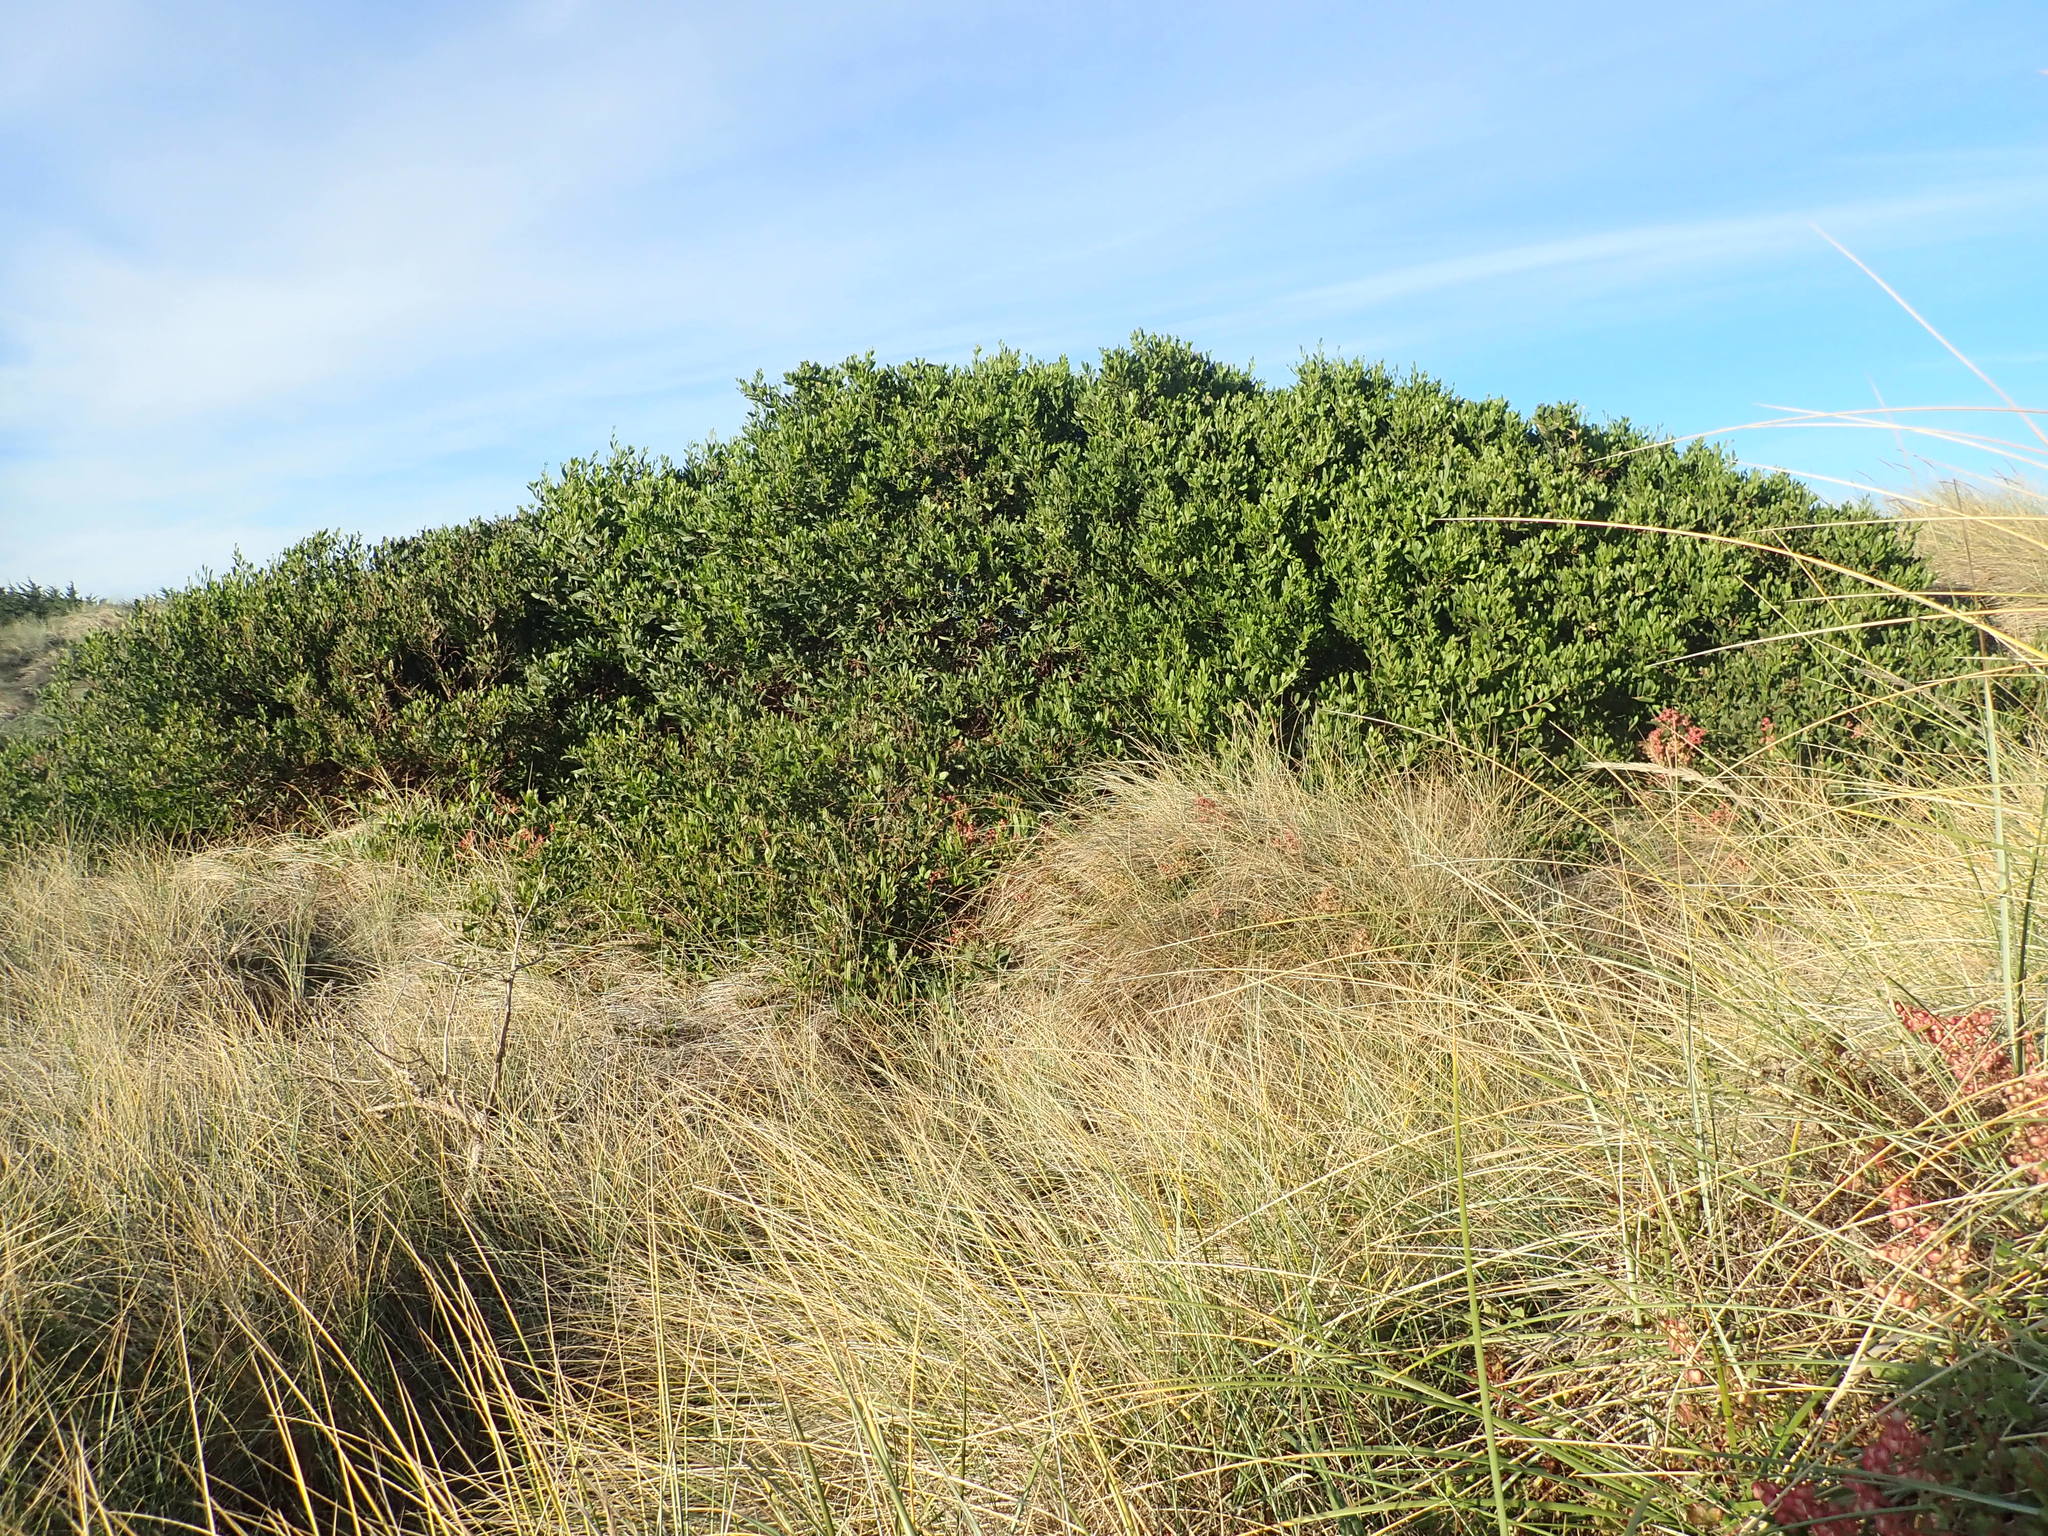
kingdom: Plantae
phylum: Tracheophyta
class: Magnoliopsida
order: Fabales
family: Fabaceae
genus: Acacia
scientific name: Acacia longifolia
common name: Sydney golden wattle
